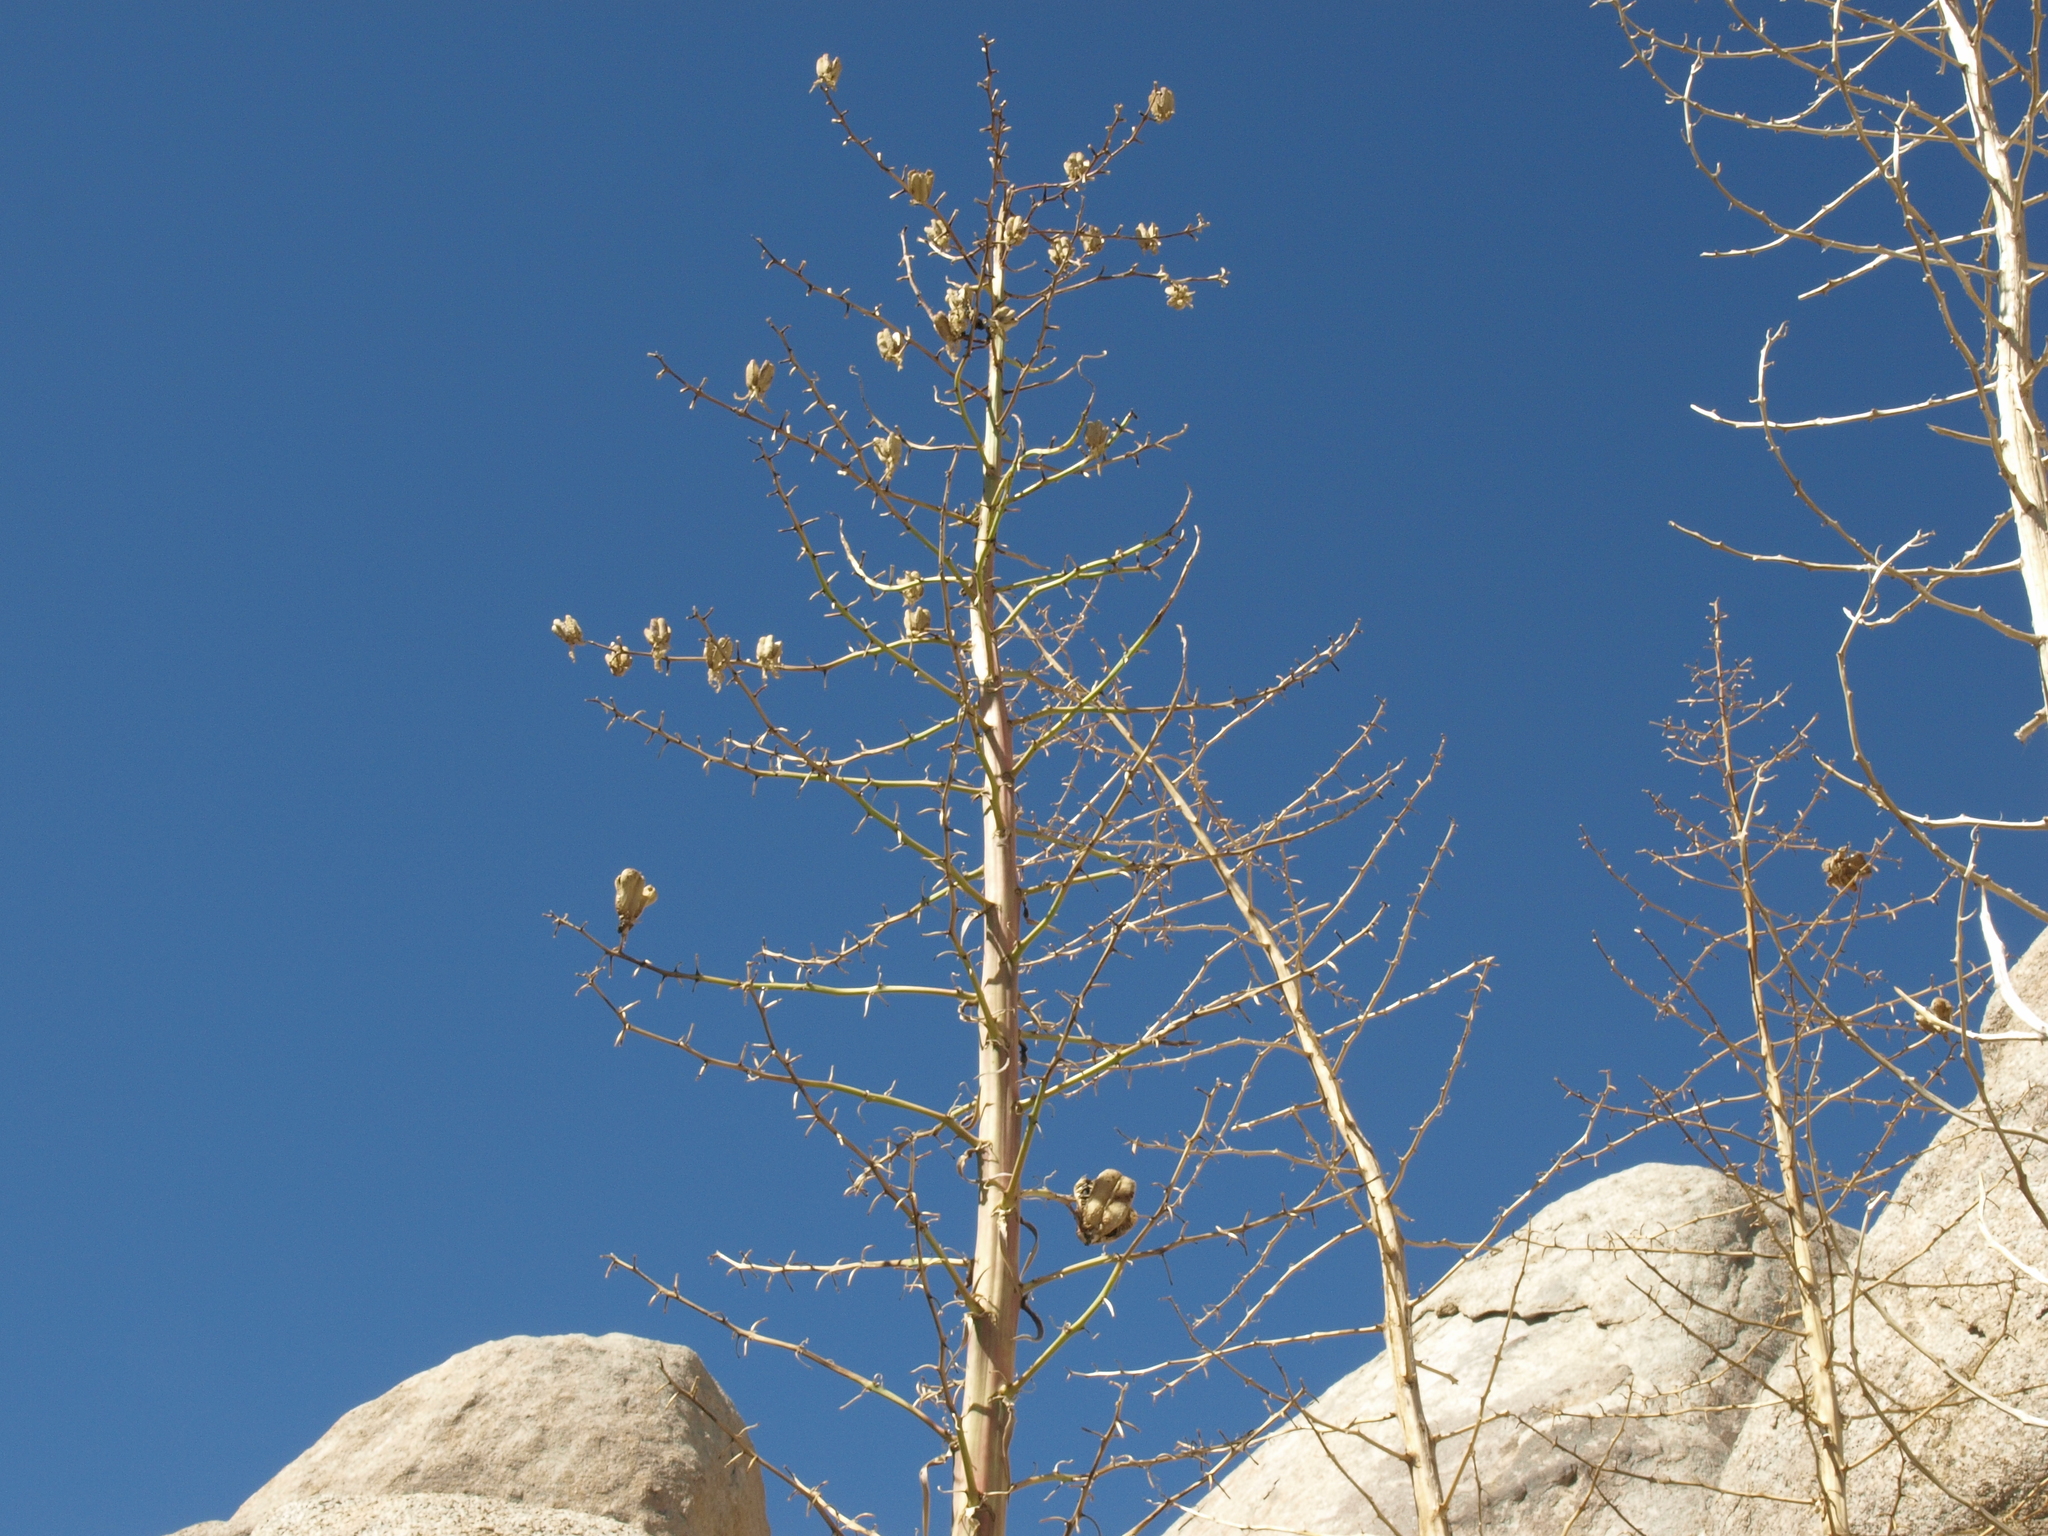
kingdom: Plantae
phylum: Tracheophyta
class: Liliopsida
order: Asparagales
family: Asparagaceae
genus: Hesperoyucca
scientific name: Hesperoyucca whipplei
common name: Our lord's-candle
